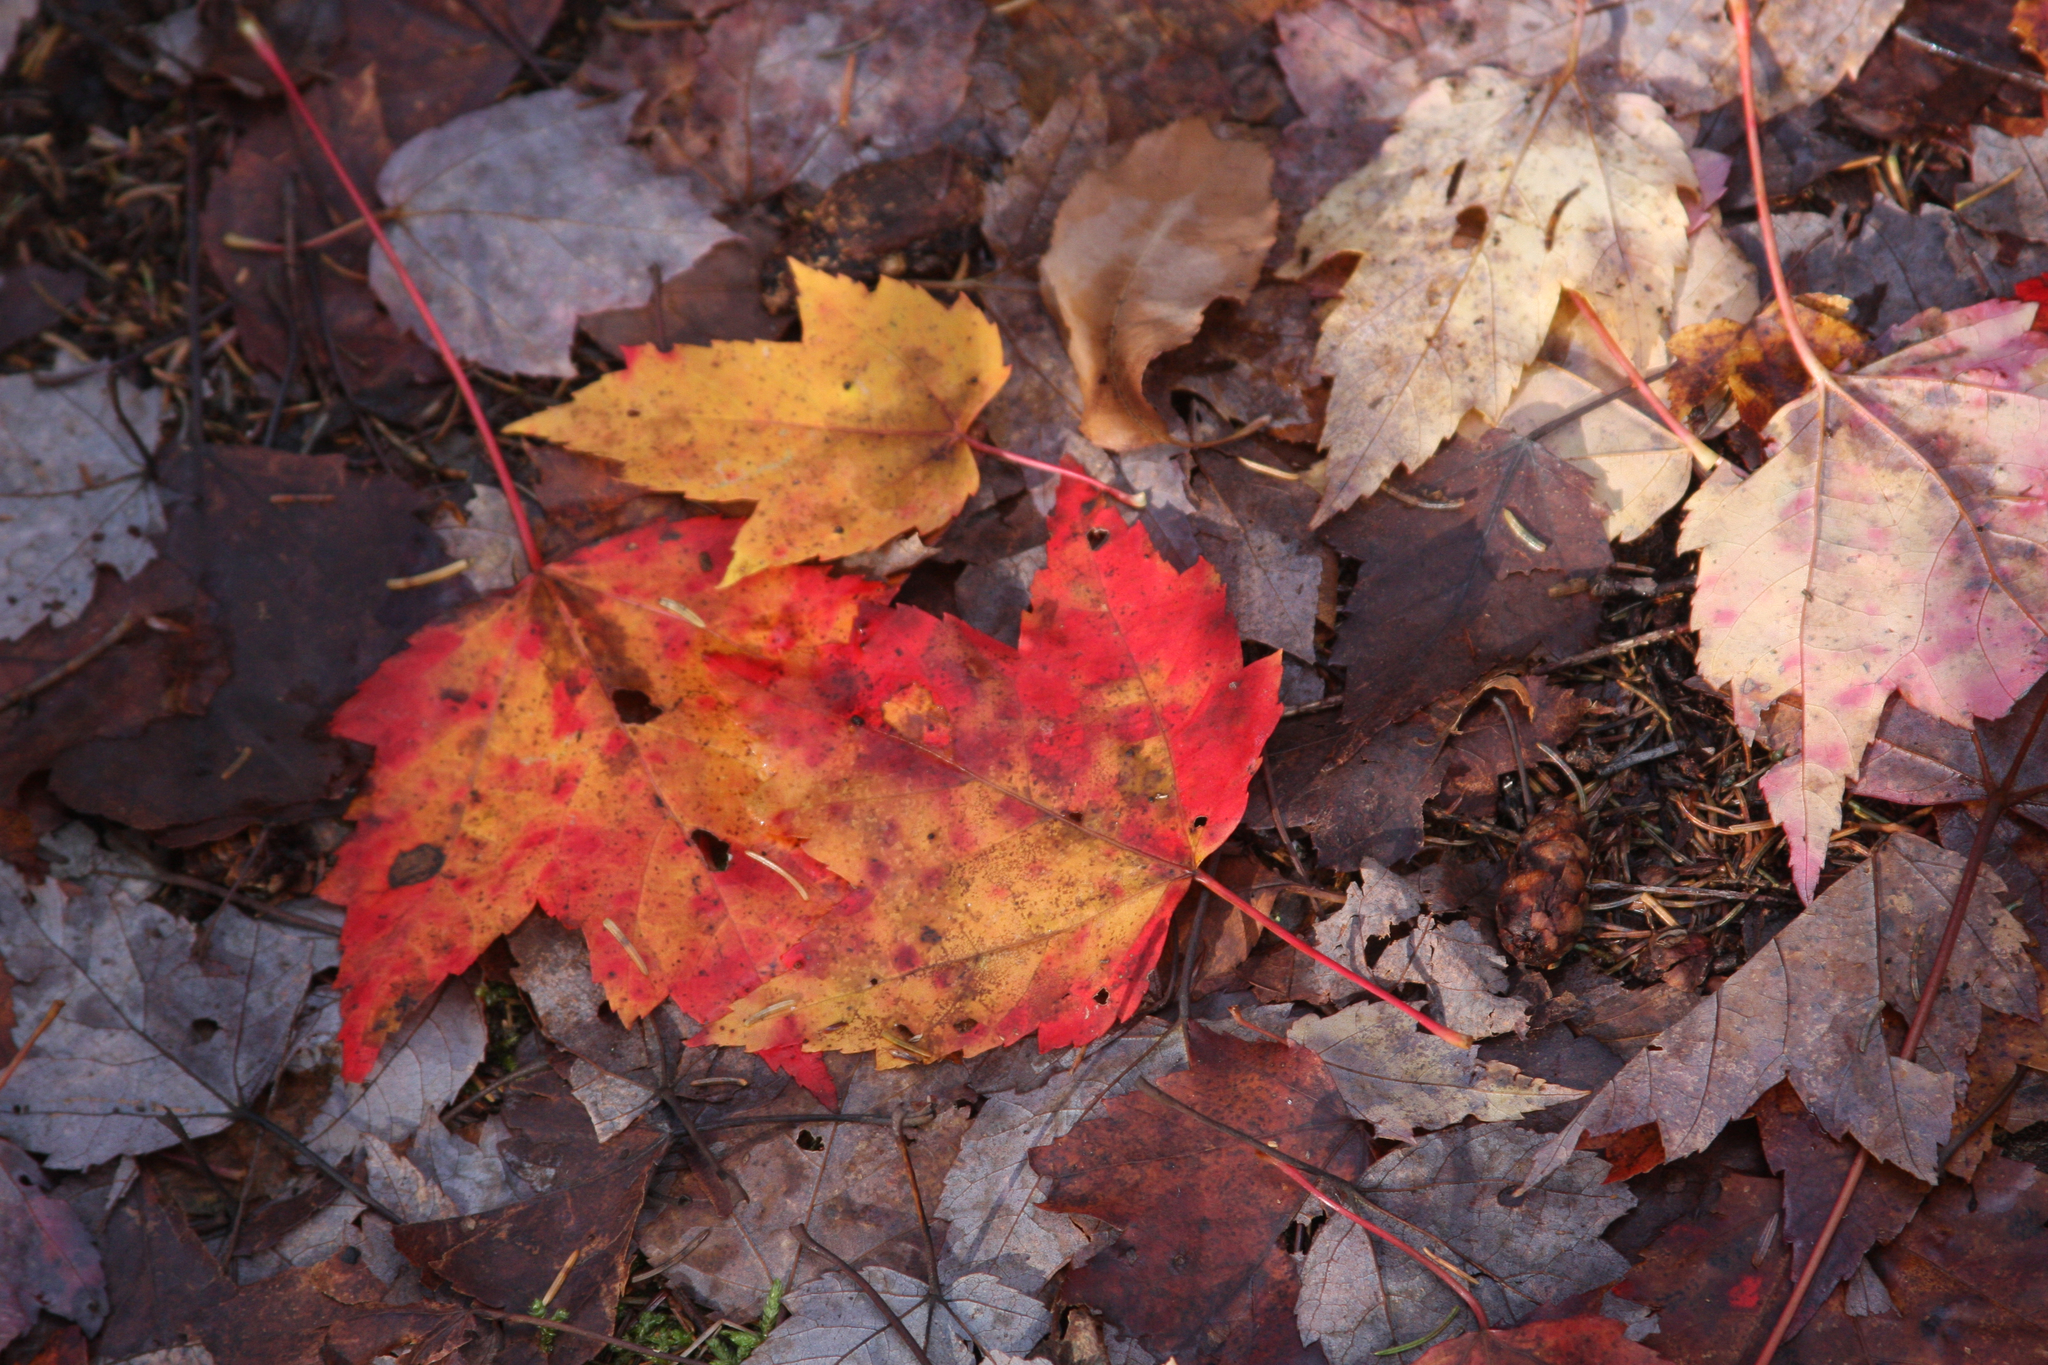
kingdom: Plantae
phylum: Tracheophyta
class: Magnoliopsida
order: Sapindales
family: Sapindaceae
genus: Acer
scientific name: Acer rubrum
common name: Red maple
